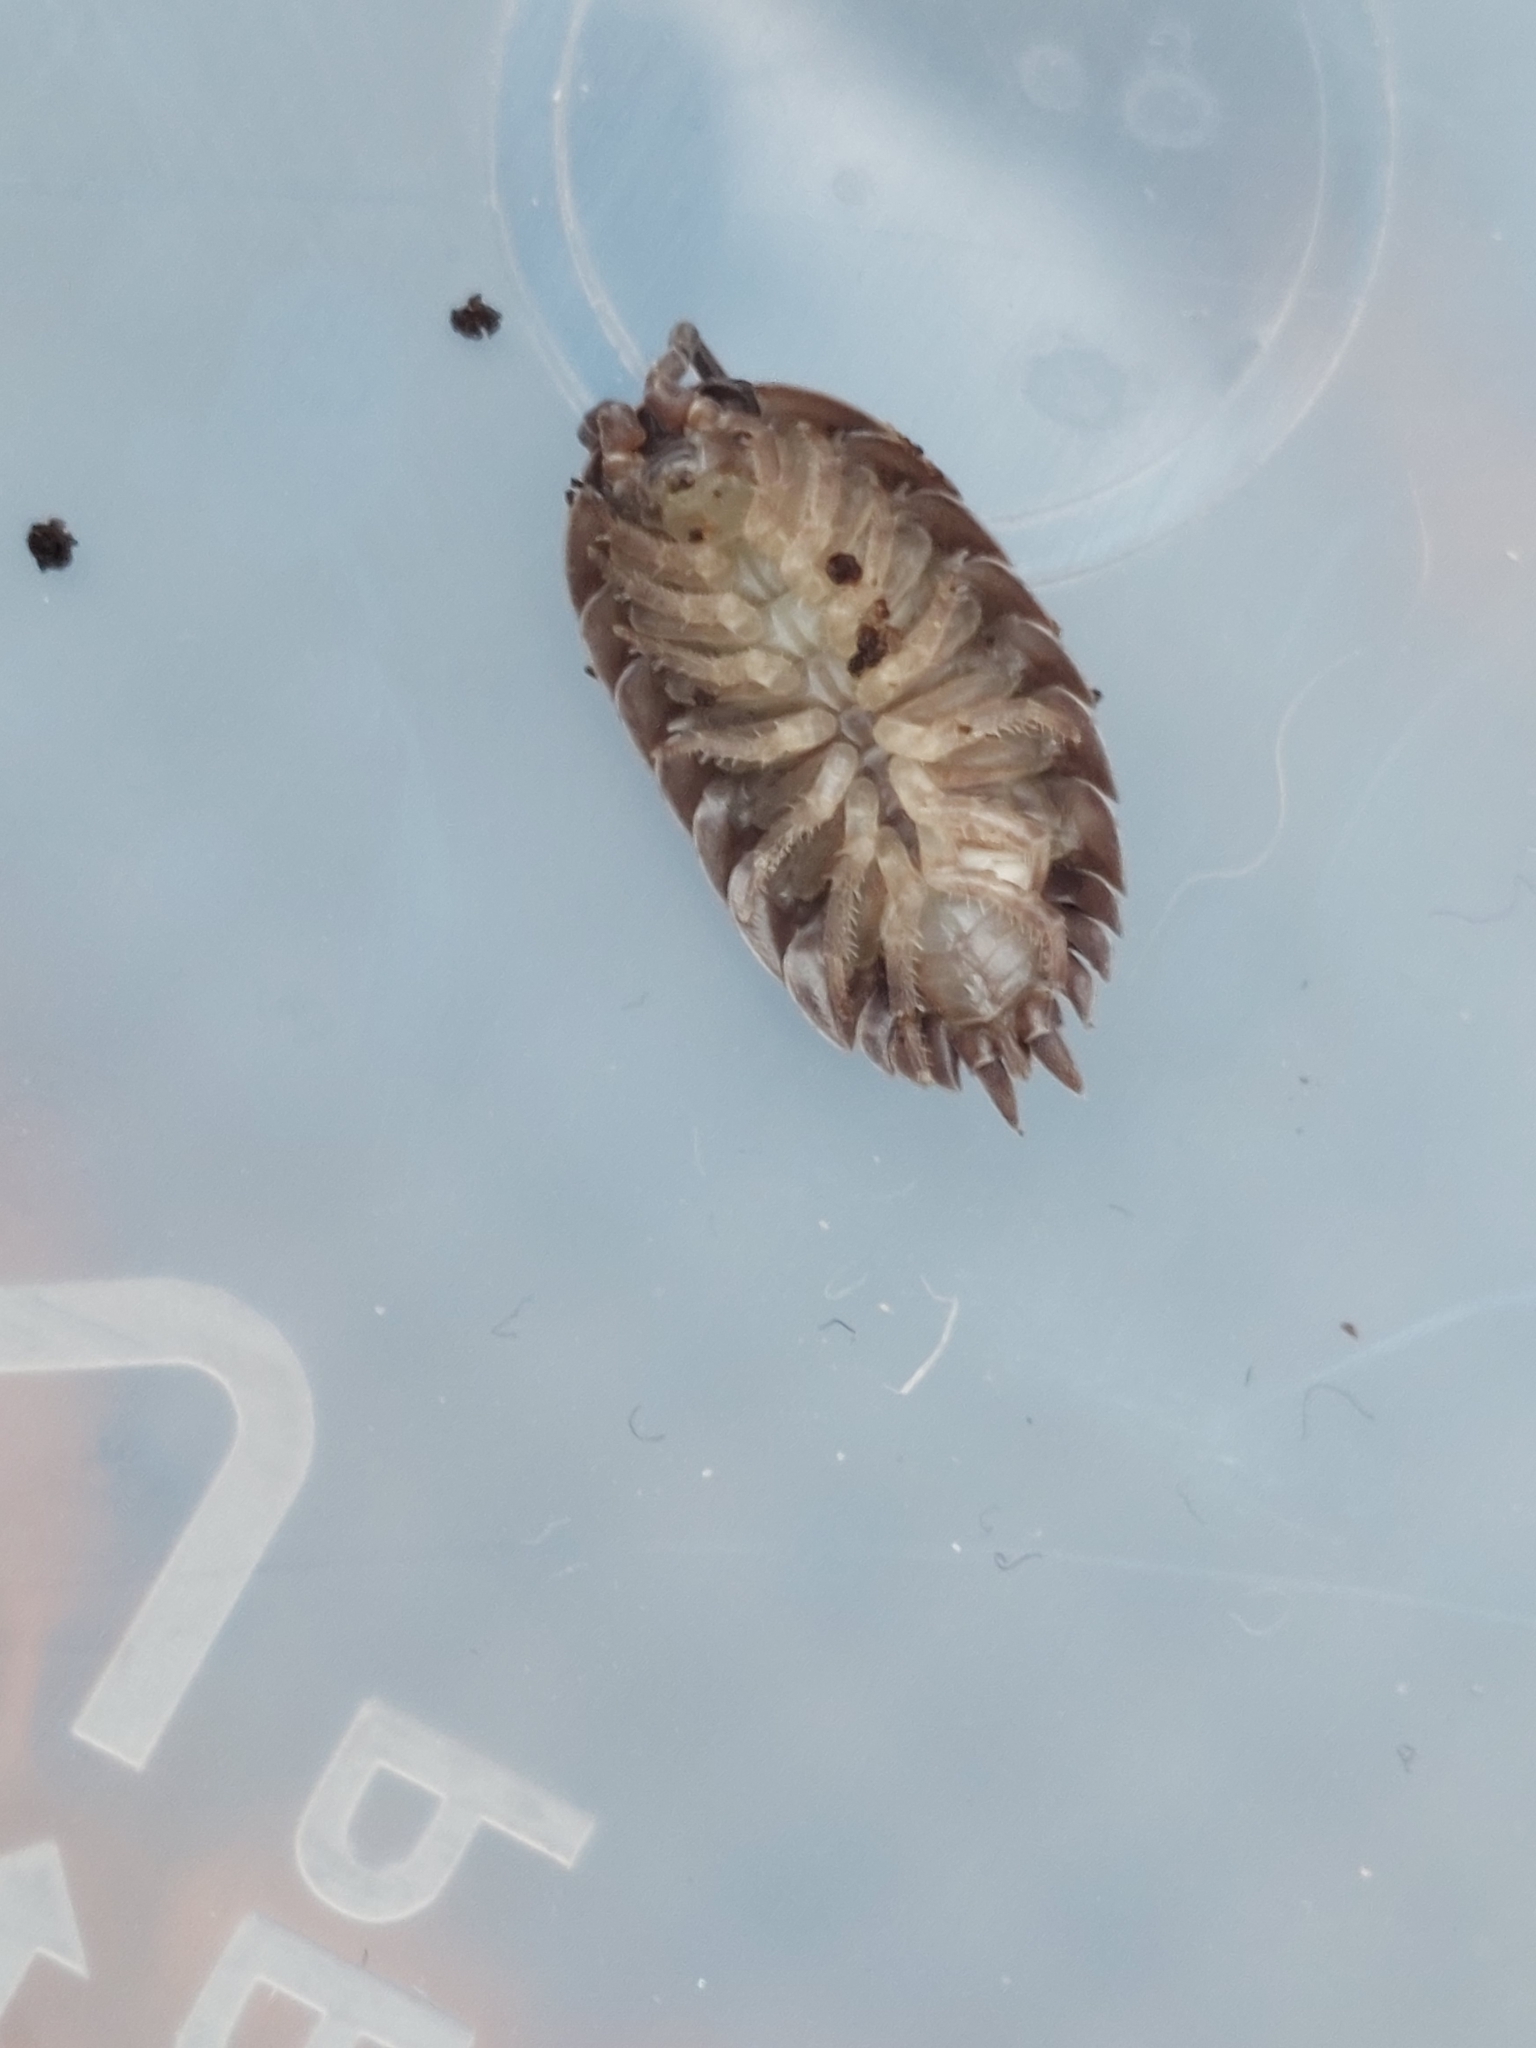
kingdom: Animalia
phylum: Arthropoda
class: Malacostraca
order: Isopoda
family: Porcellionidae
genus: Porcellio
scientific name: Porcellio scaber
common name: Common rough woodlouse
